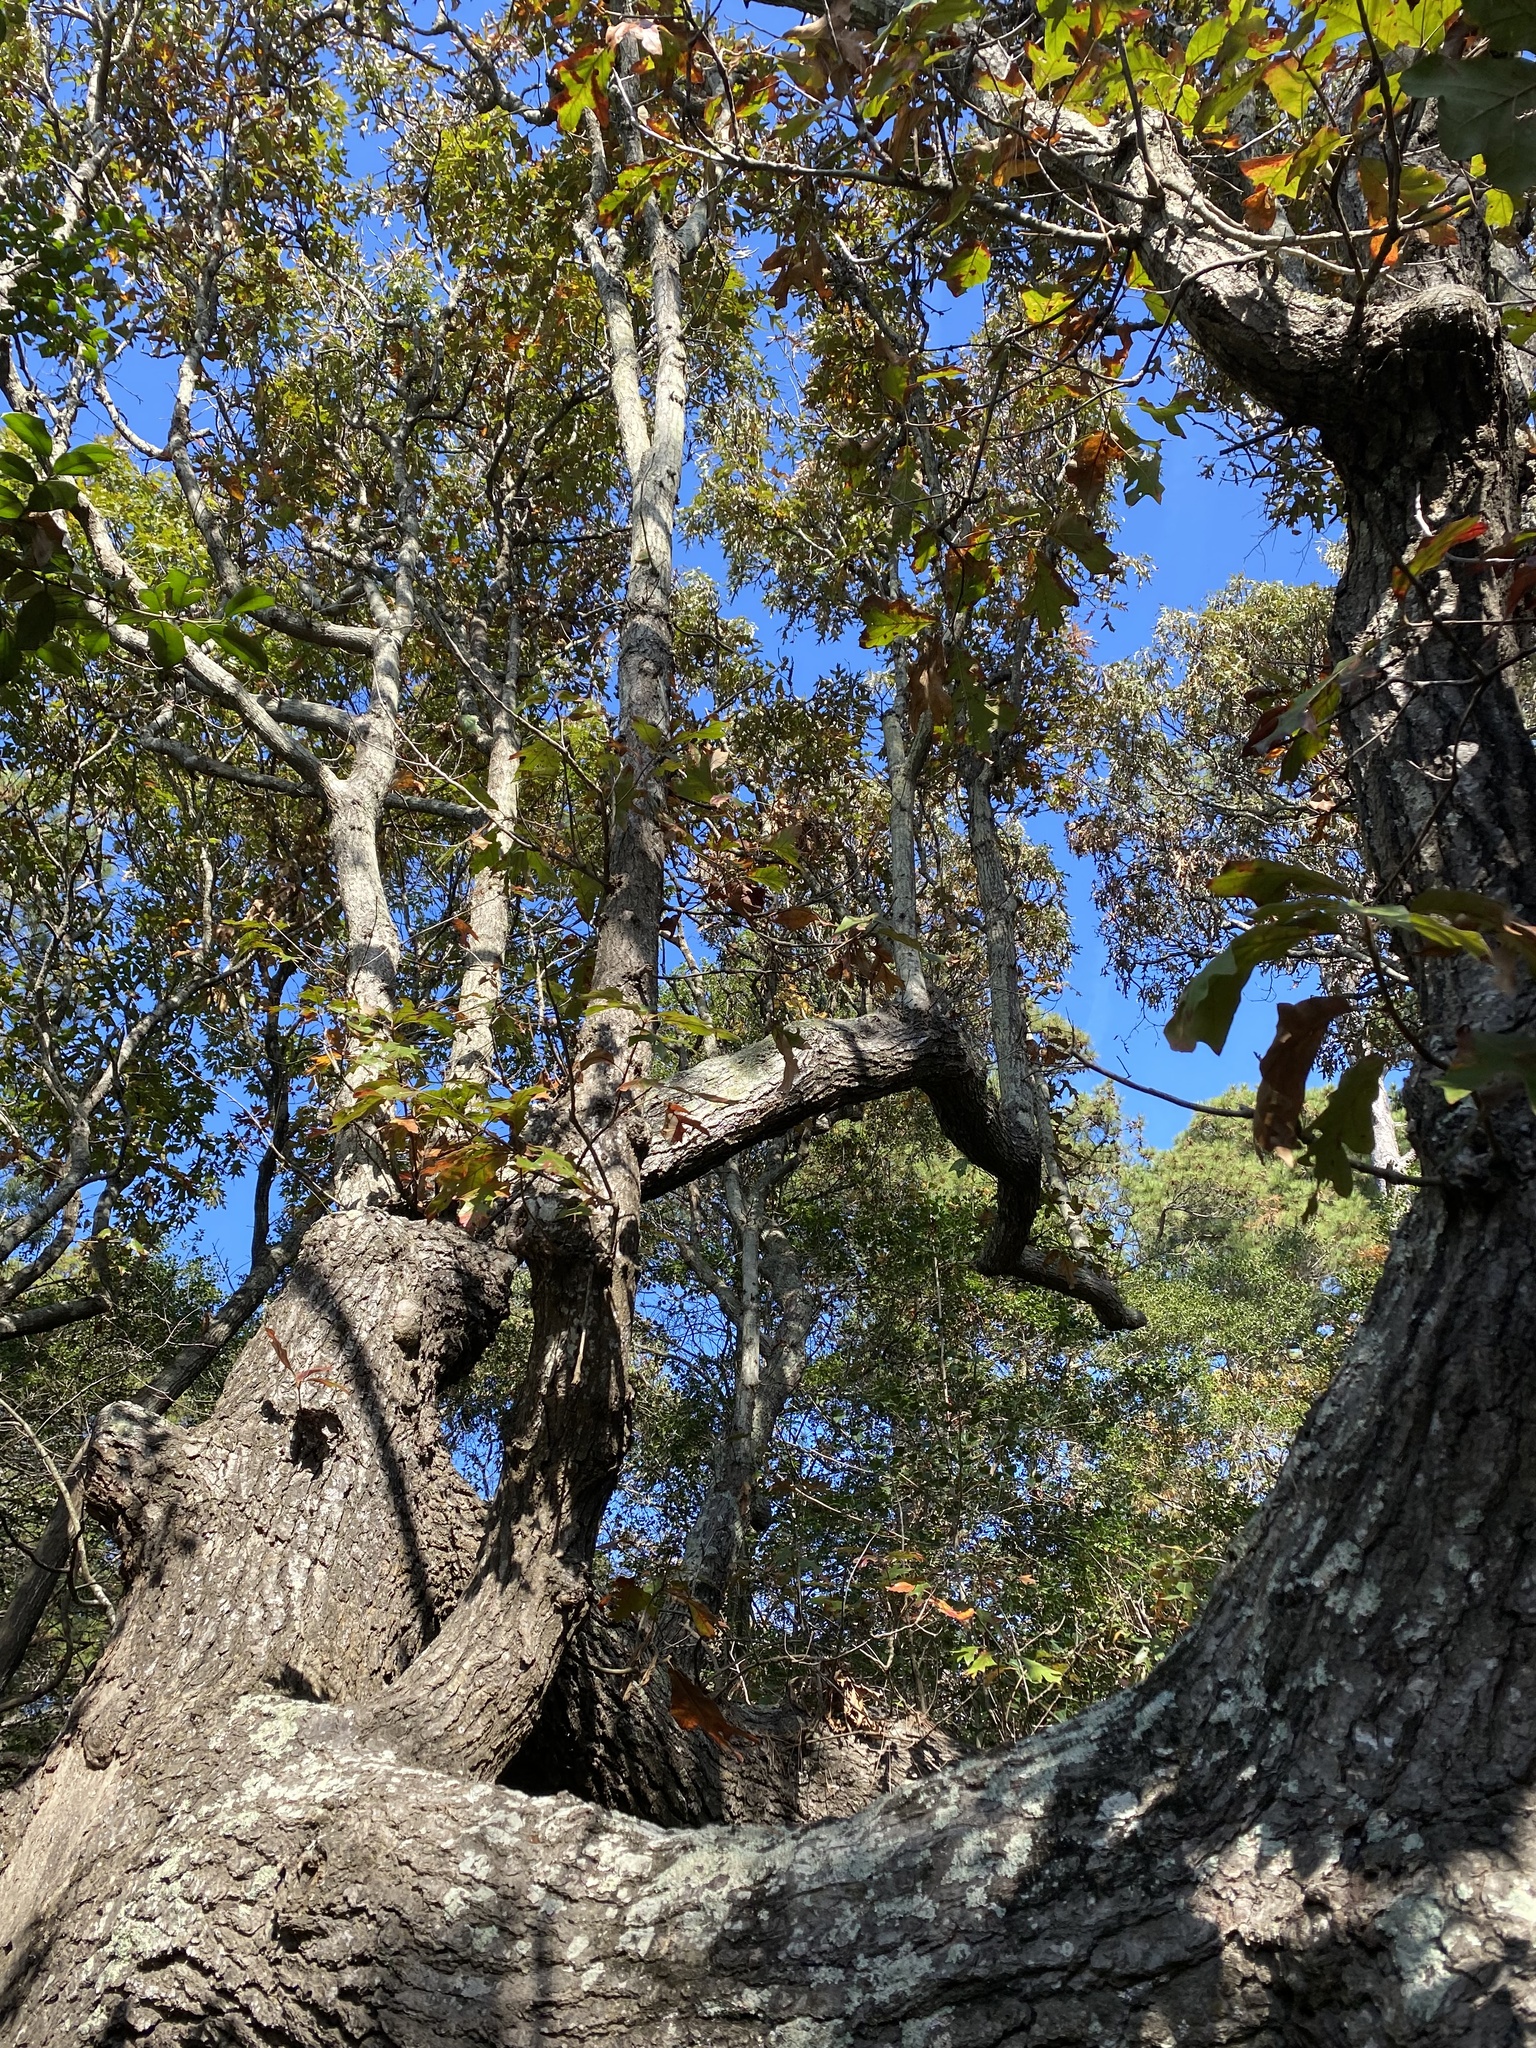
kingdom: Plantae
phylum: Tracheophyta
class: Magnoliopsida
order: Fagales
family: Fagaceae
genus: Quercus
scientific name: Quercus falcata
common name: Southern red oak
